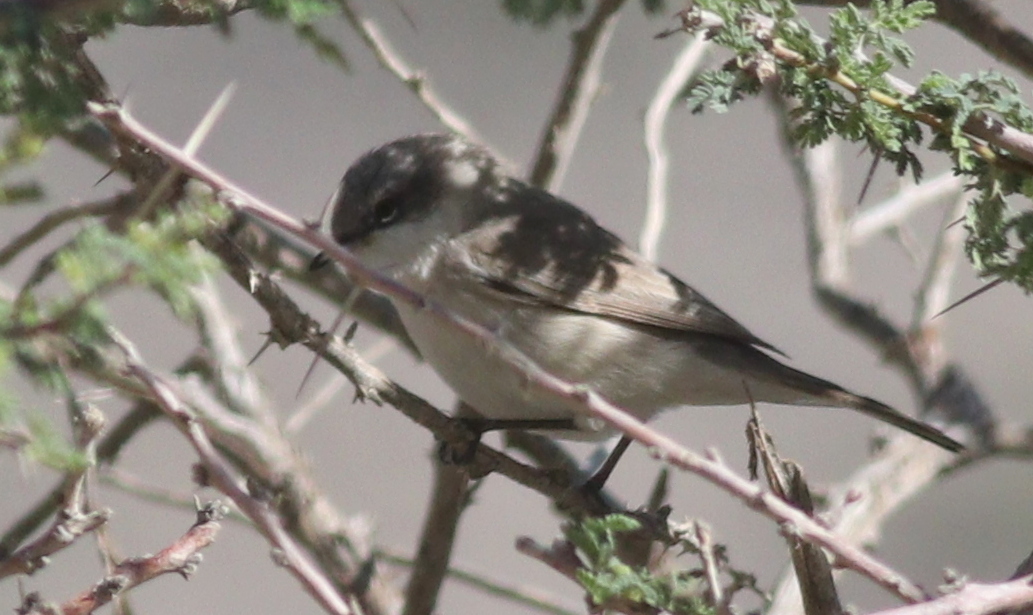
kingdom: Animalia
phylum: Chordata
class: Aves
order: Passeriformes
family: Sylviidae
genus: Sylvia
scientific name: Sylvia curruca
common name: Lesser whitethroat
